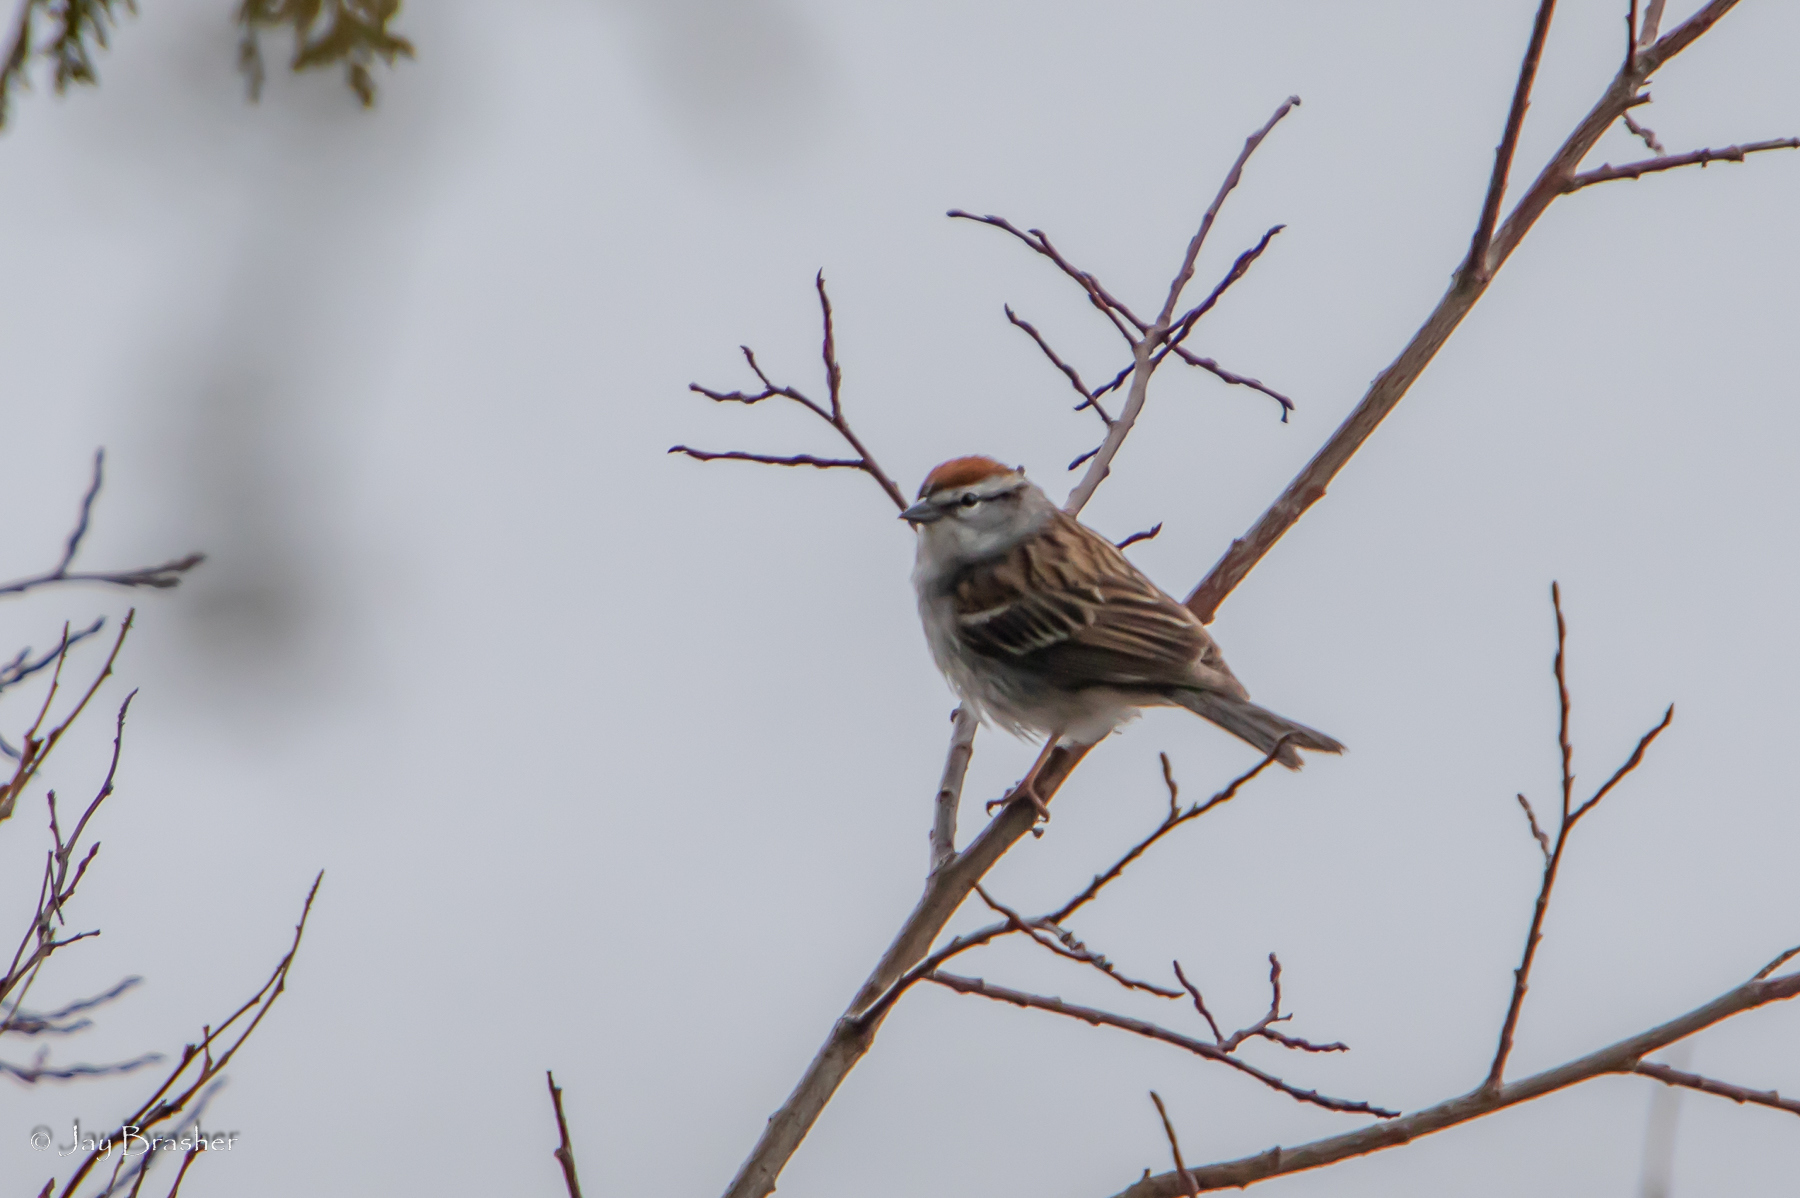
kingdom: Animalia
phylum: Chordata
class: Aves
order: Passeriformes
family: Passerellidae
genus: Spizella
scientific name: Spizella passerina
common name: Chipping sparrow
